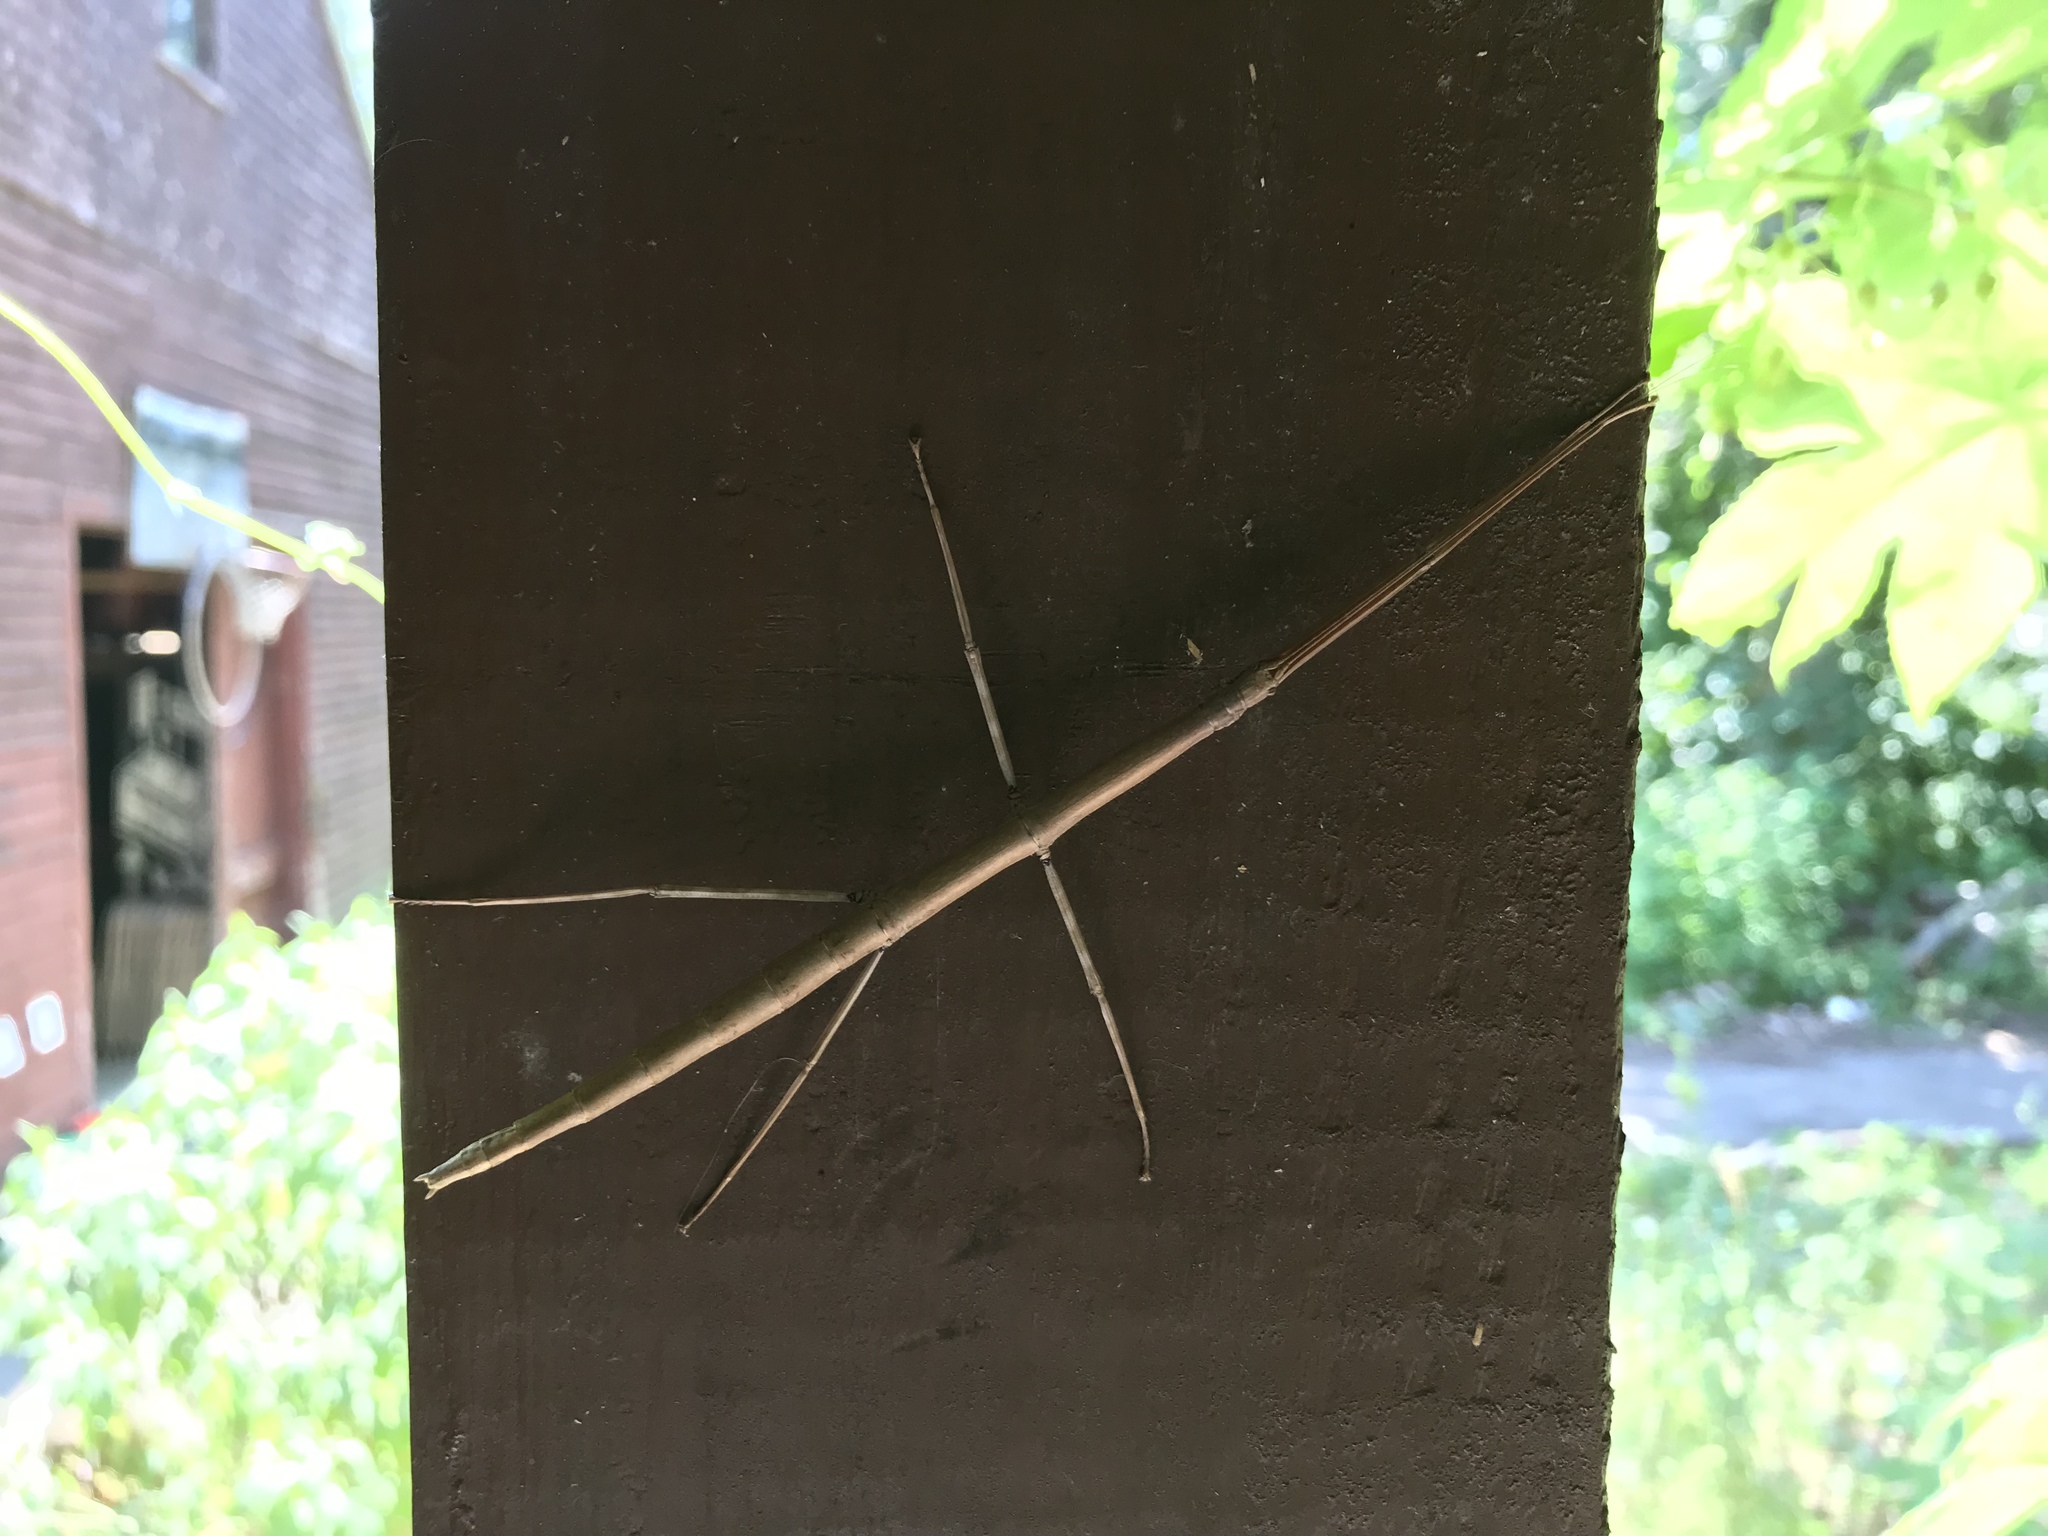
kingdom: Animalia
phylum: Arthropoda
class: Insecta
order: Phasmida
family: Diapheromeridae
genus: Diapheromera
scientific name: Diapheromera femorata
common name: Common american walkingstick
